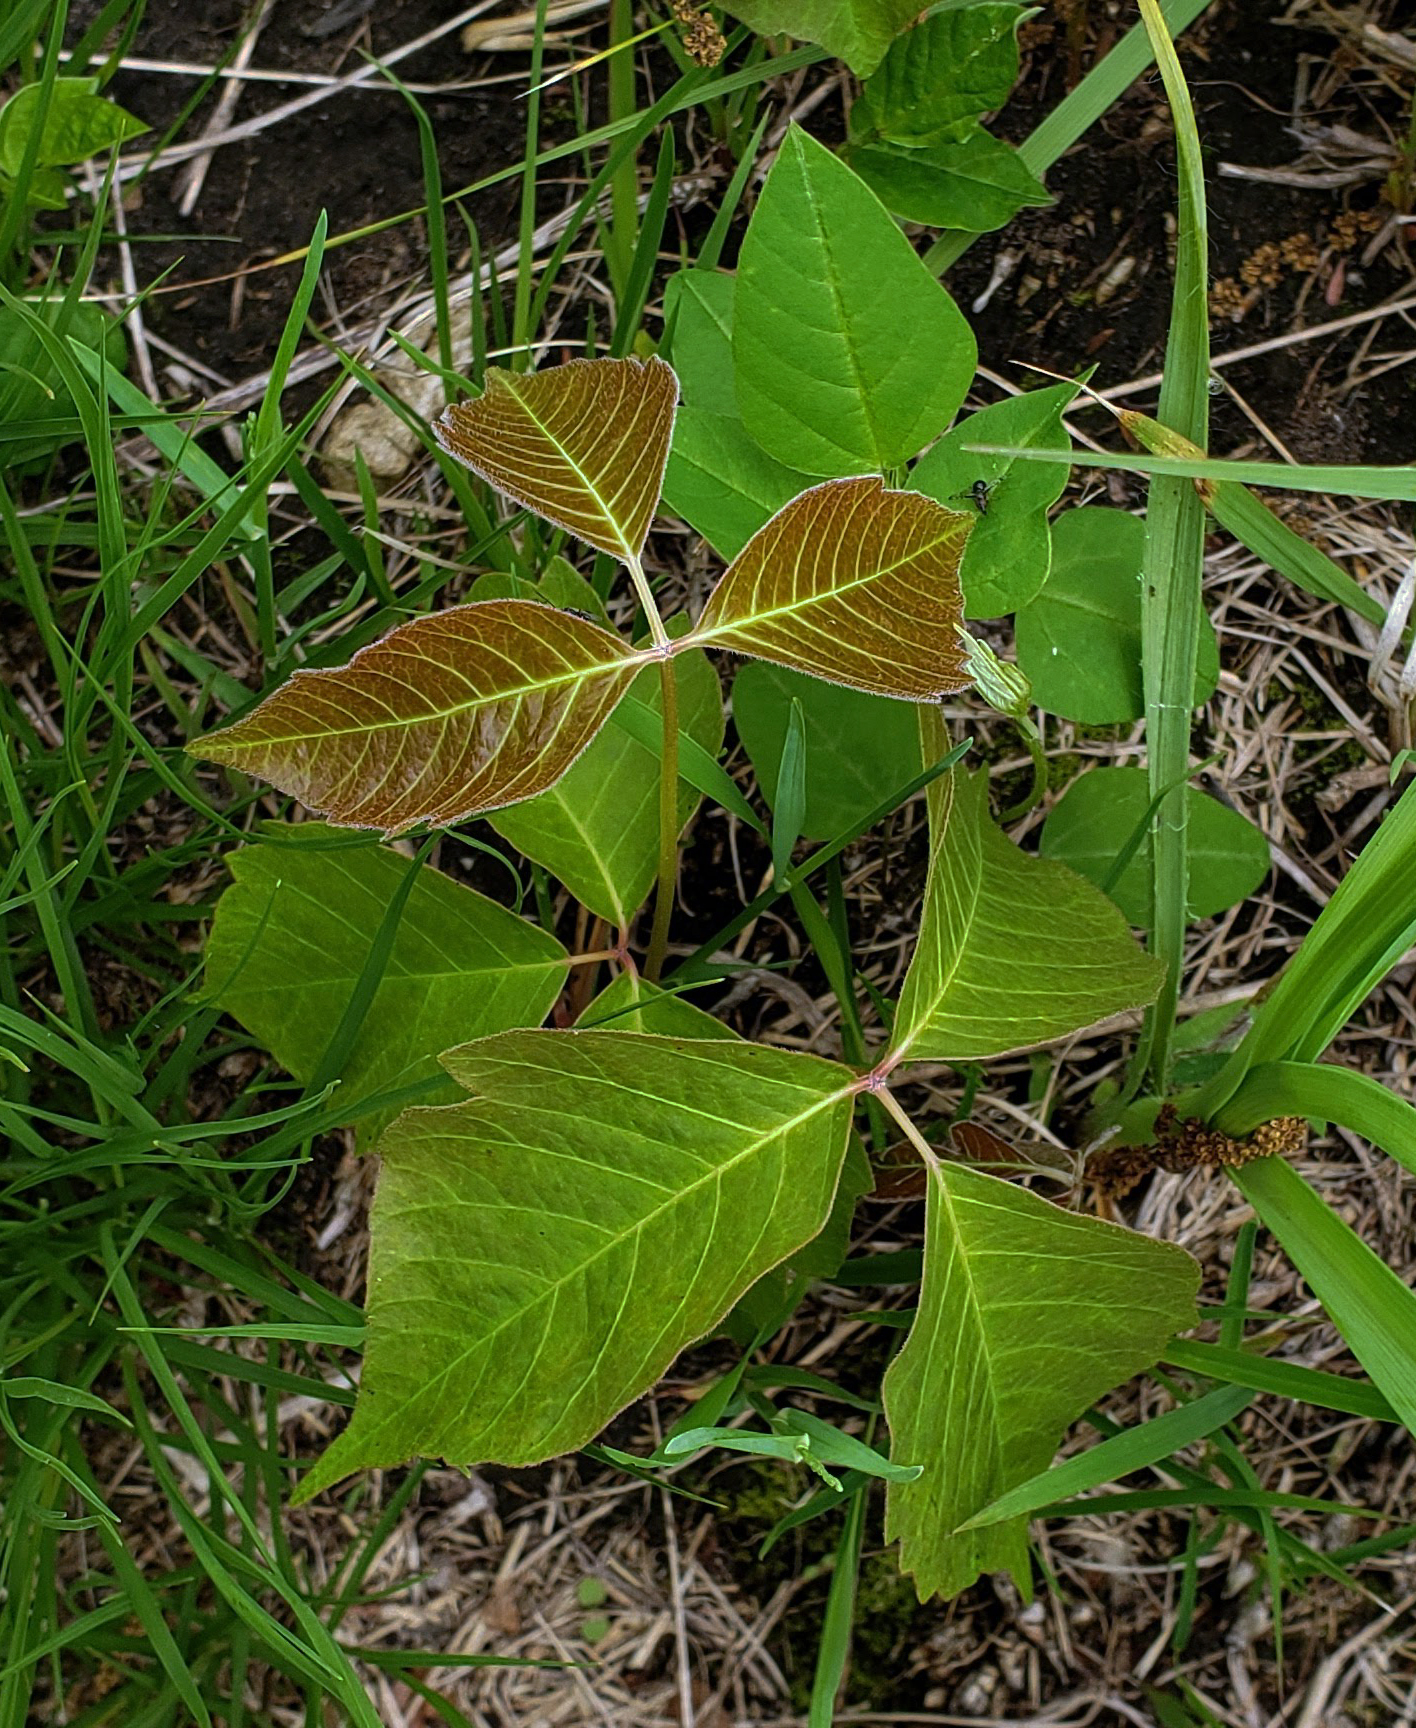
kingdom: Plantae
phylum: Tracheophyta
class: Magnoliopsida
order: Sapindales
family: Anacardiaceae
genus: Toxicodendron
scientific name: Toxicodendron rydbergii
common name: Rydberg's poison-ivy
